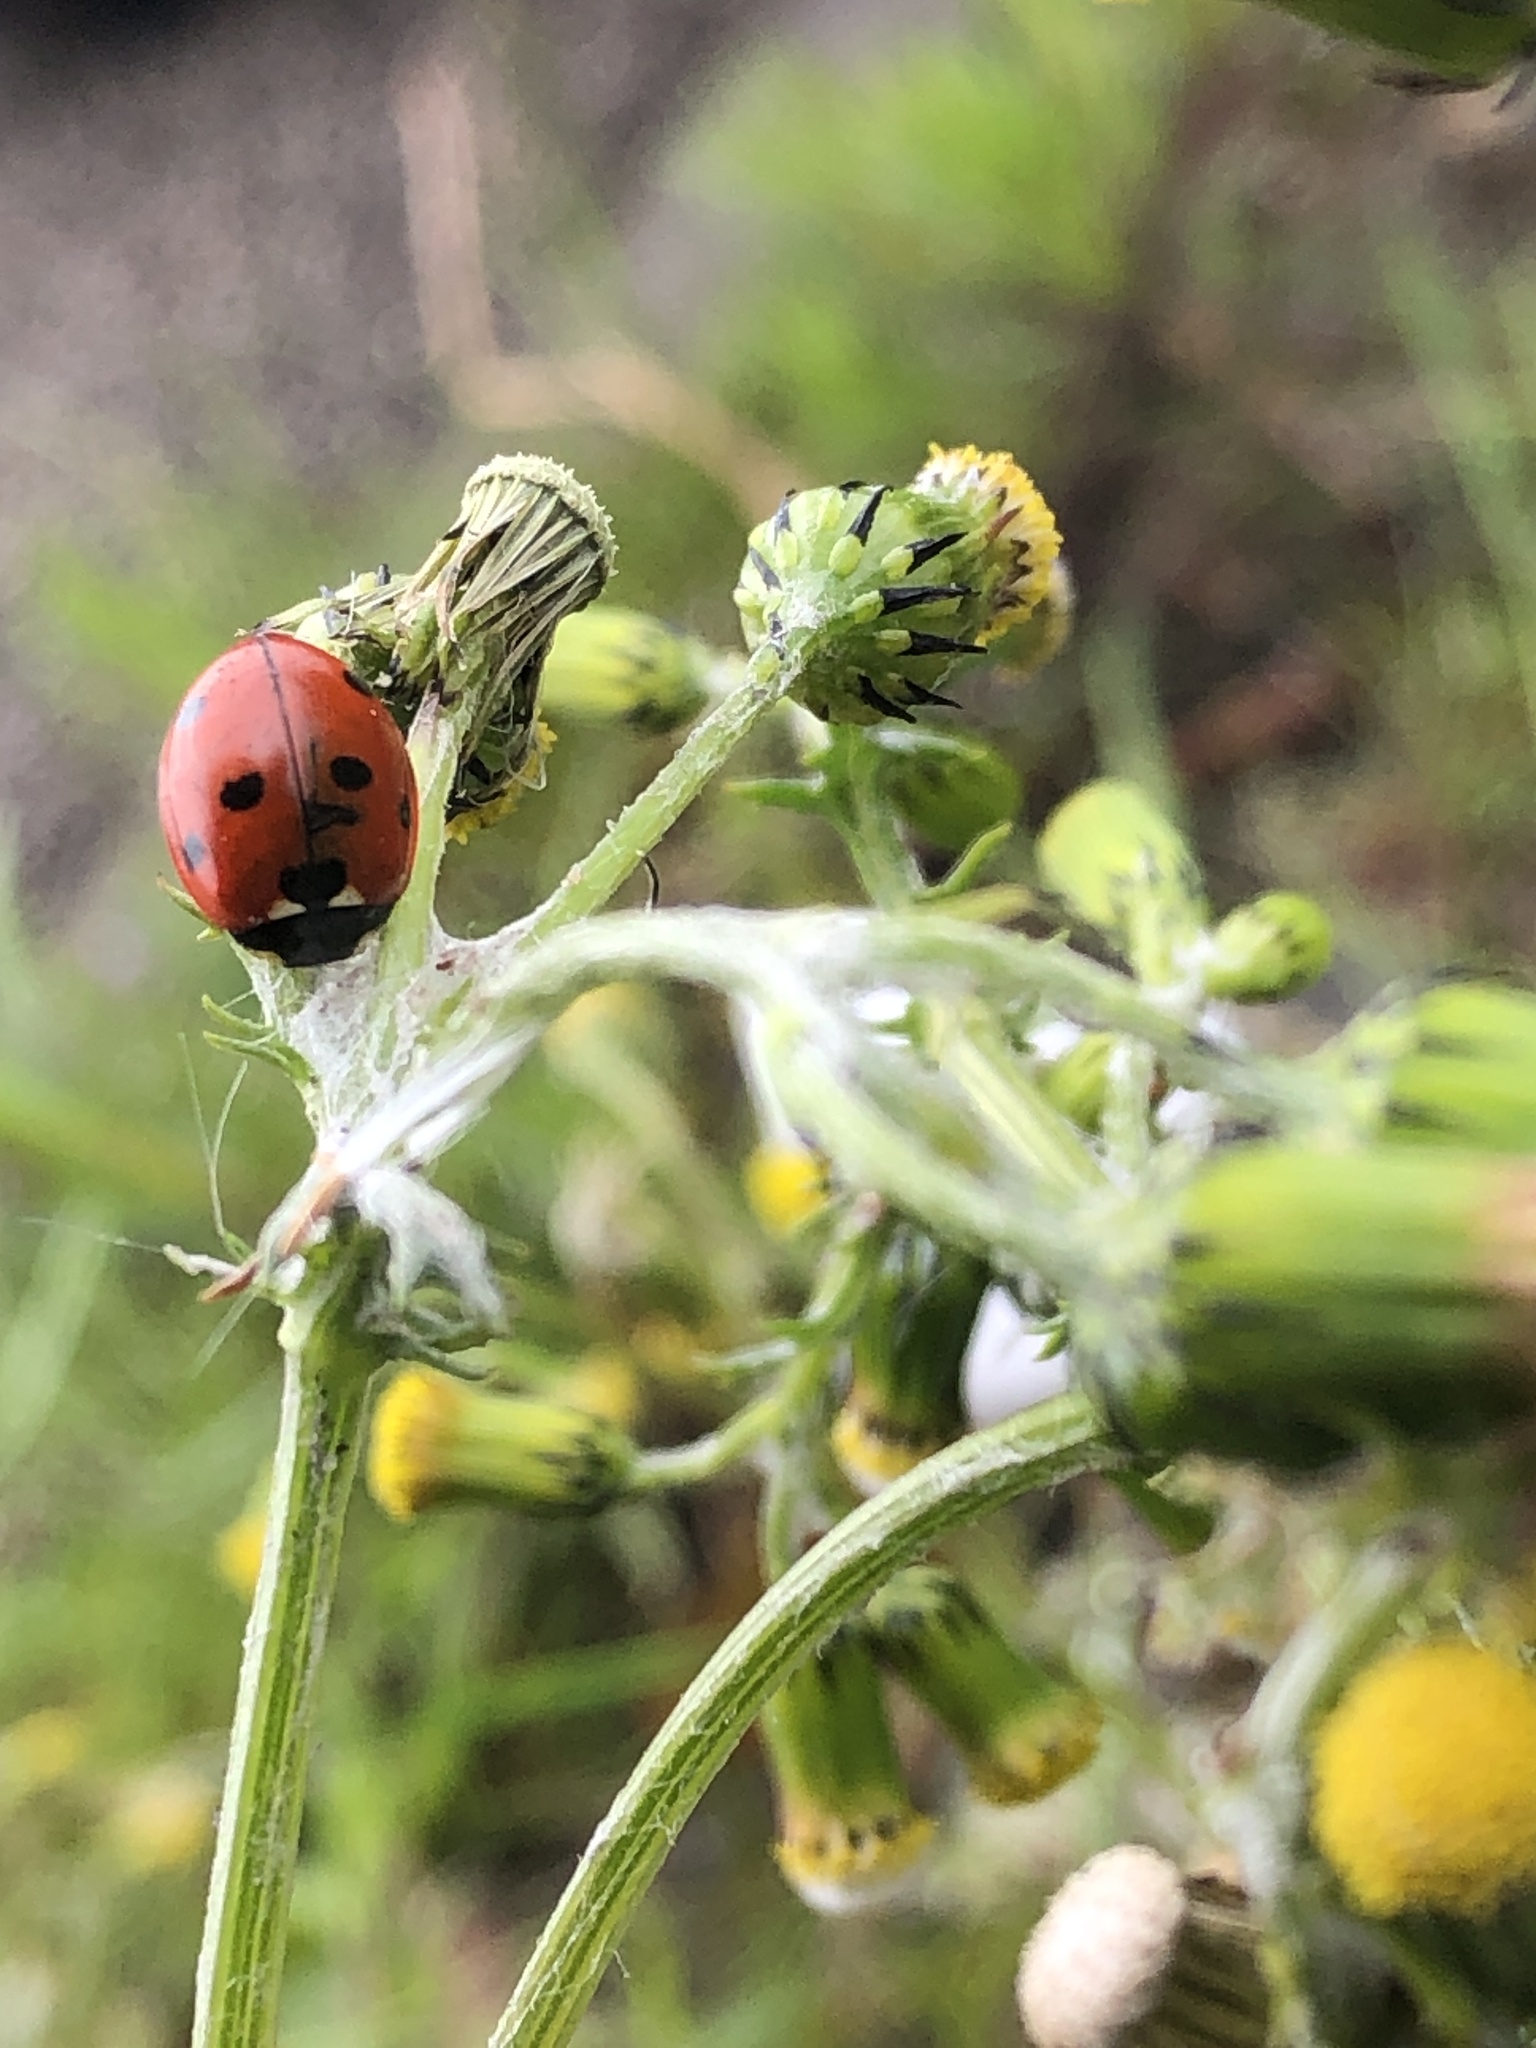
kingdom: Animalia
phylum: Arthropoda
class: Insecta
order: Coleoptera
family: Coccinellidae
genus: Coccinella
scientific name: Coccinella septempunctata
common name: Sevenspotted lady beetle
